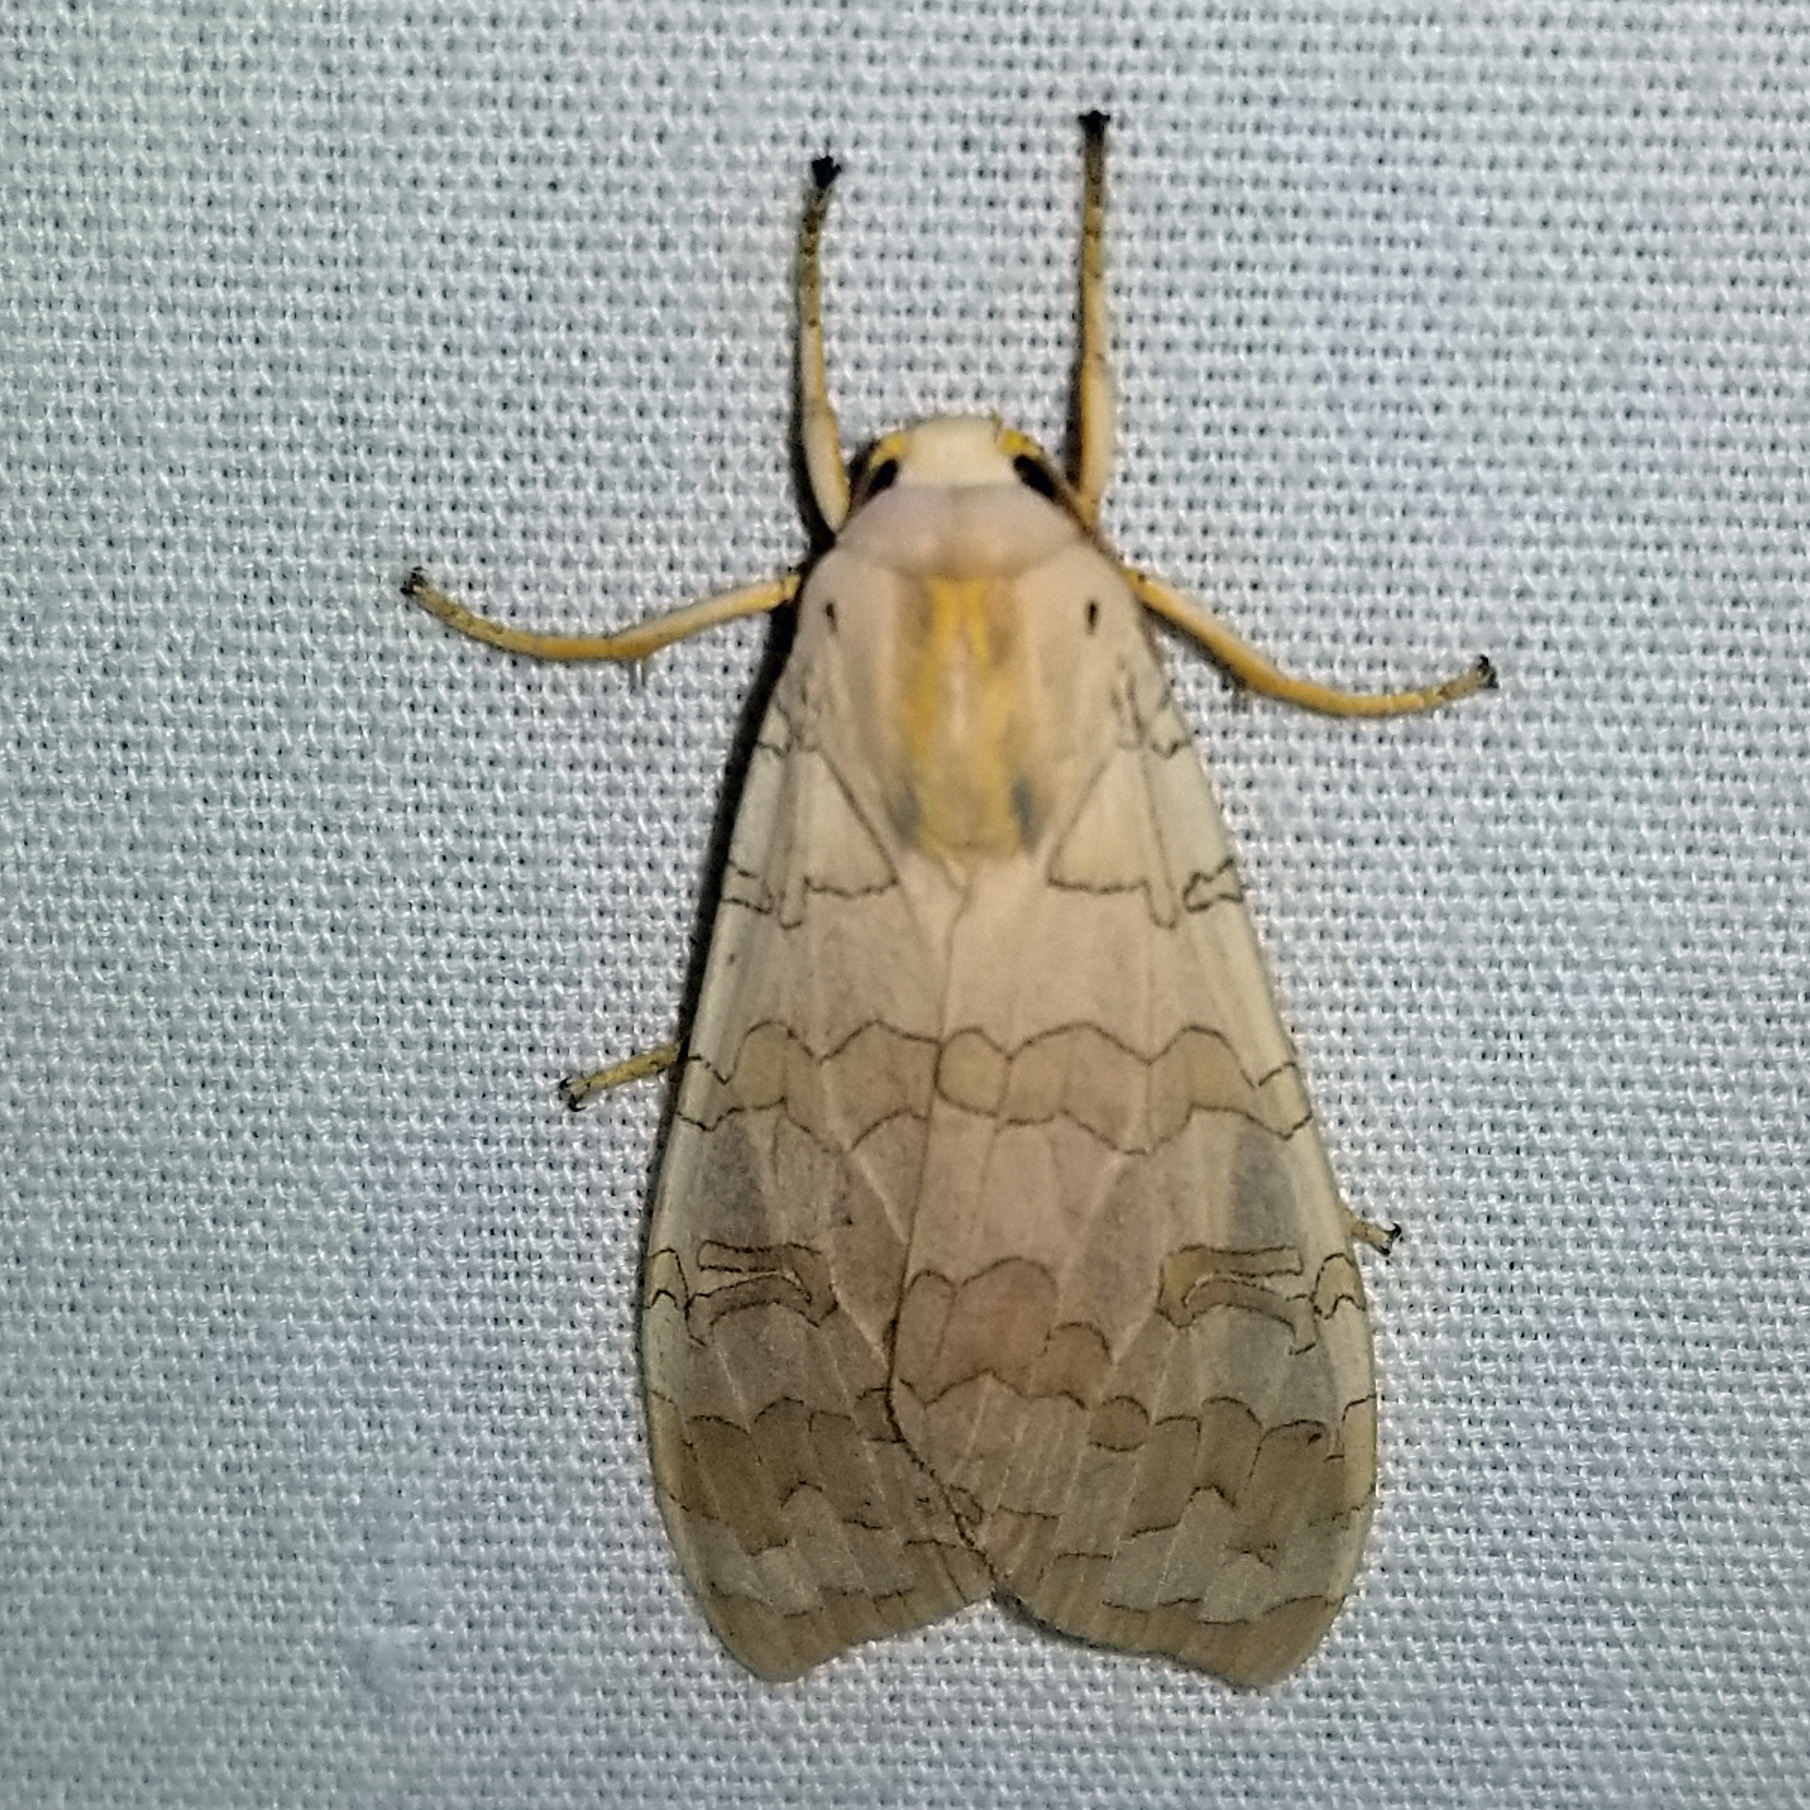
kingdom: Animalia
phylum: Arthropoda
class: Insecta
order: Lepidoptera
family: Erebidae
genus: Halysidota
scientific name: Halysidota
